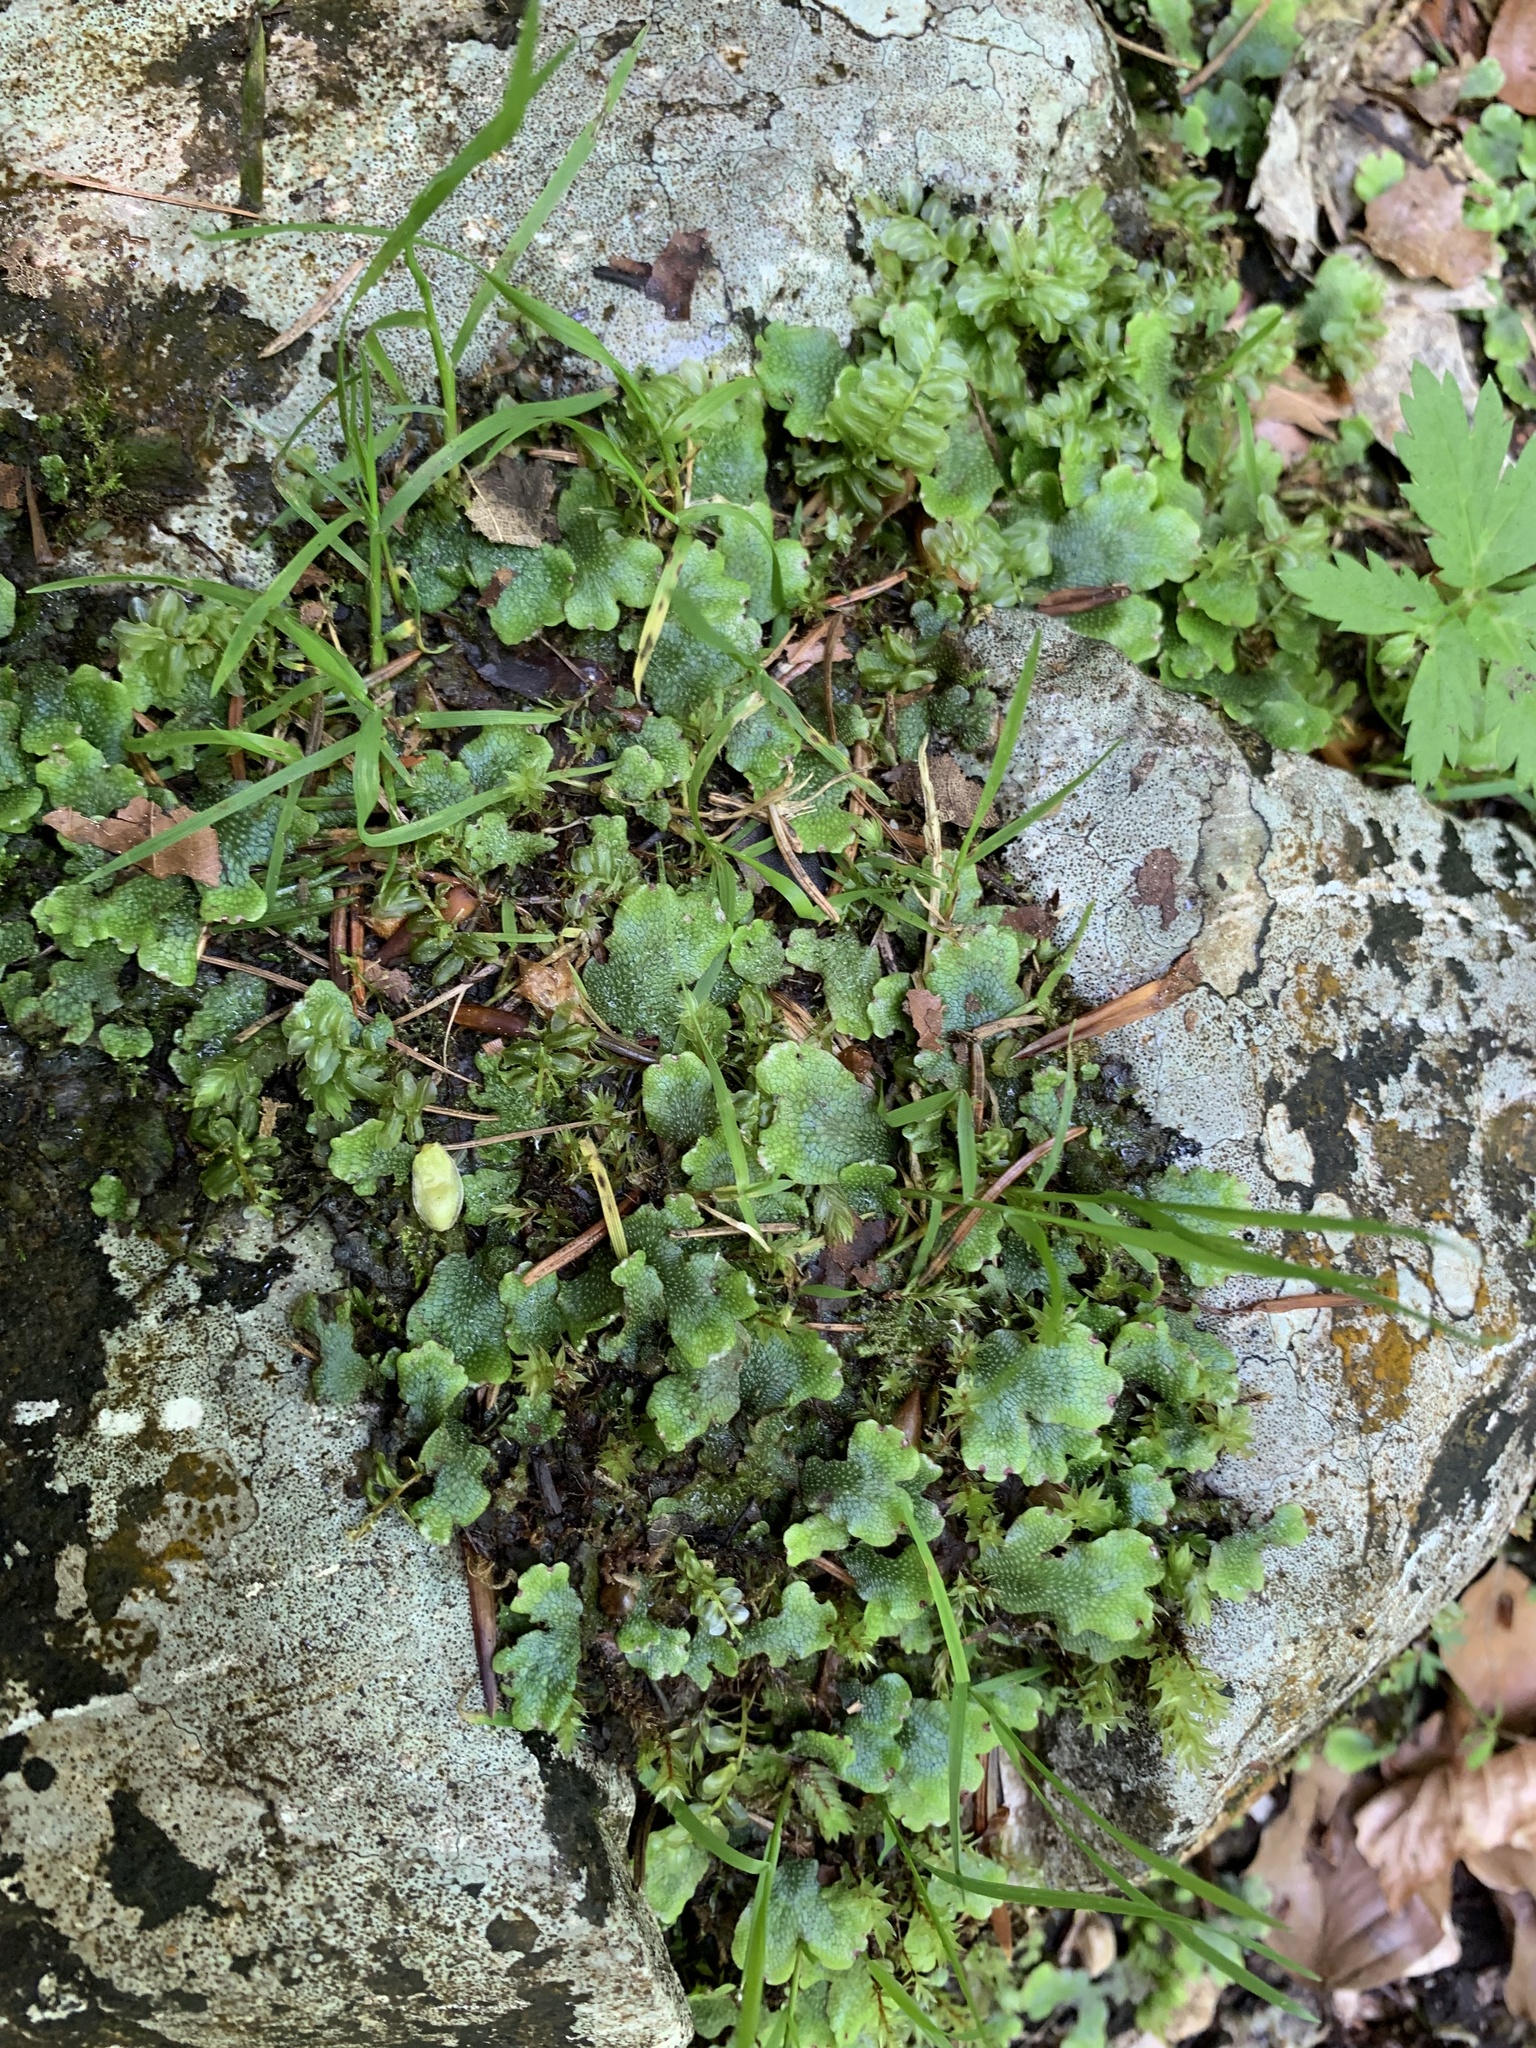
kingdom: Plantae
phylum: Marchantiophyta
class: Marchantiopsida
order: Marchantiales
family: Conocephalaceae
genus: Conocephalum
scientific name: Conocephalum salebrosum
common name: Cat-tongue liverwort
